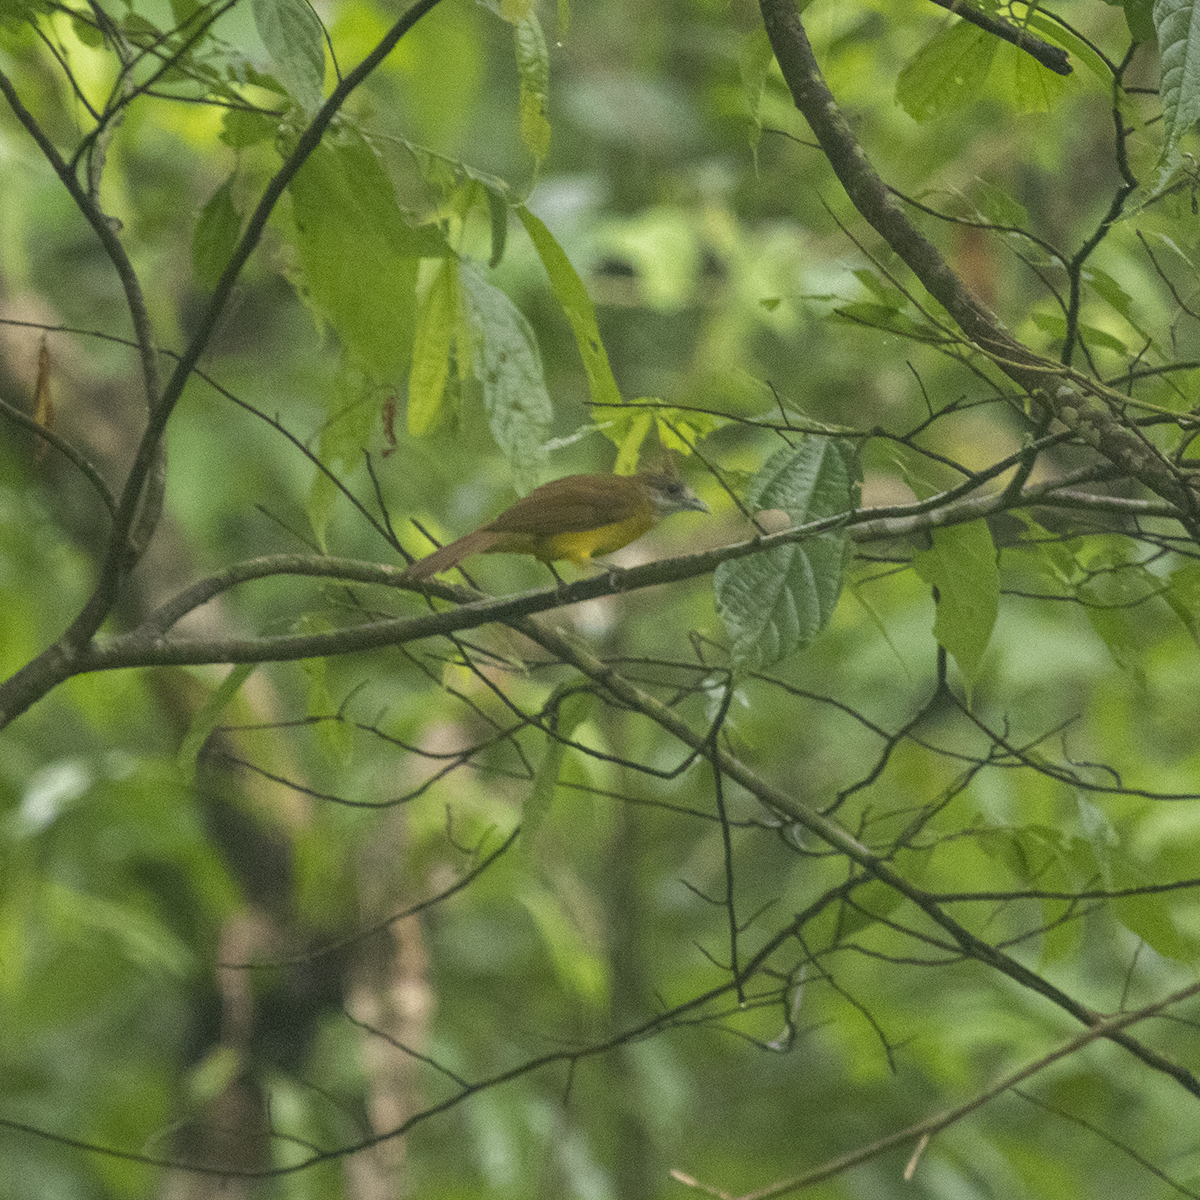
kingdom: Animalia
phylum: Chordata
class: Aves
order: Passeriformes
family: Pycnonotidae
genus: Alophoixus
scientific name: Alophoixus flaveolus
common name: White-throated bulbul
